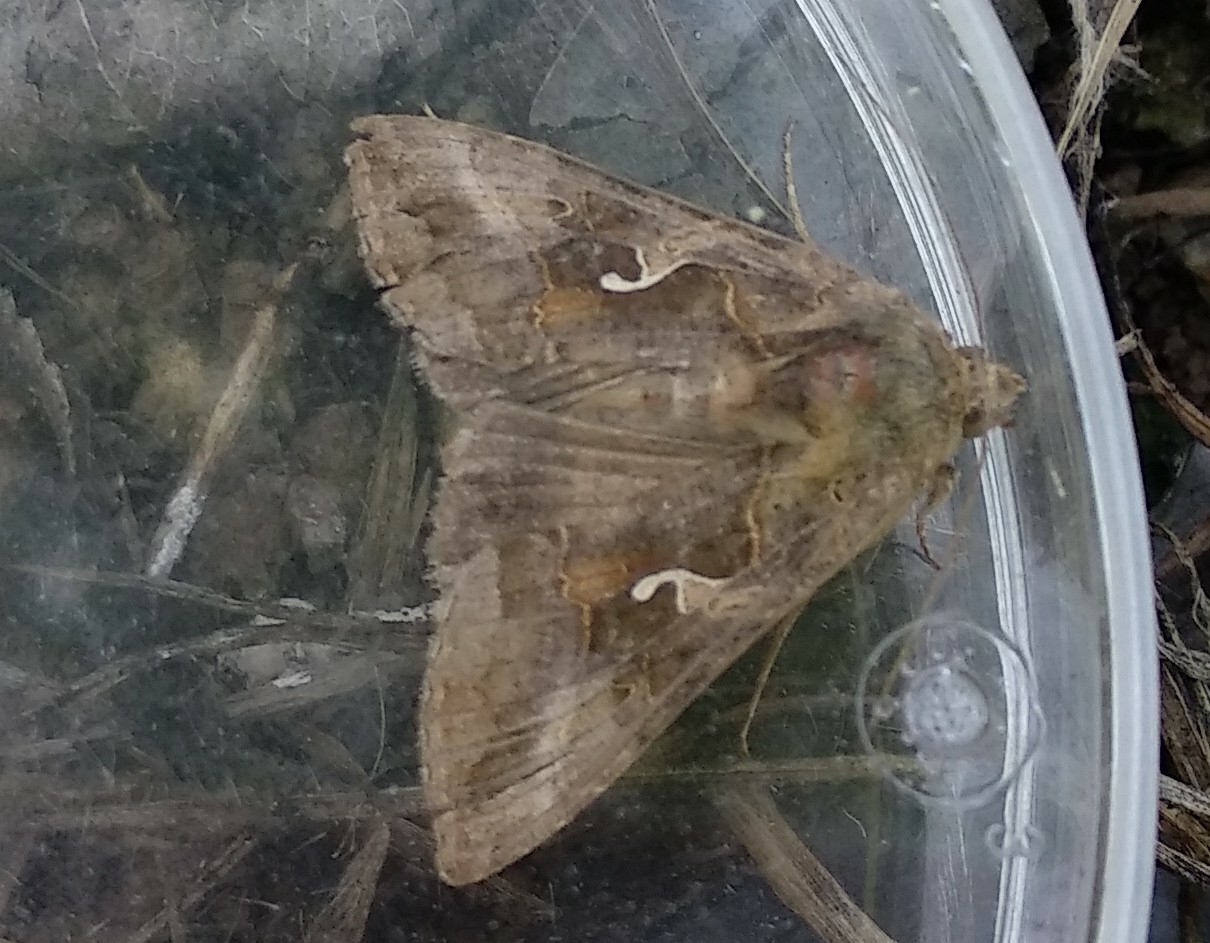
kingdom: Animalia
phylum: Arthropoda
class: Insecta
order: Lepidoptera
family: Noctuidae
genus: Autographa
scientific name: Autographa gamma
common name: Silver y
